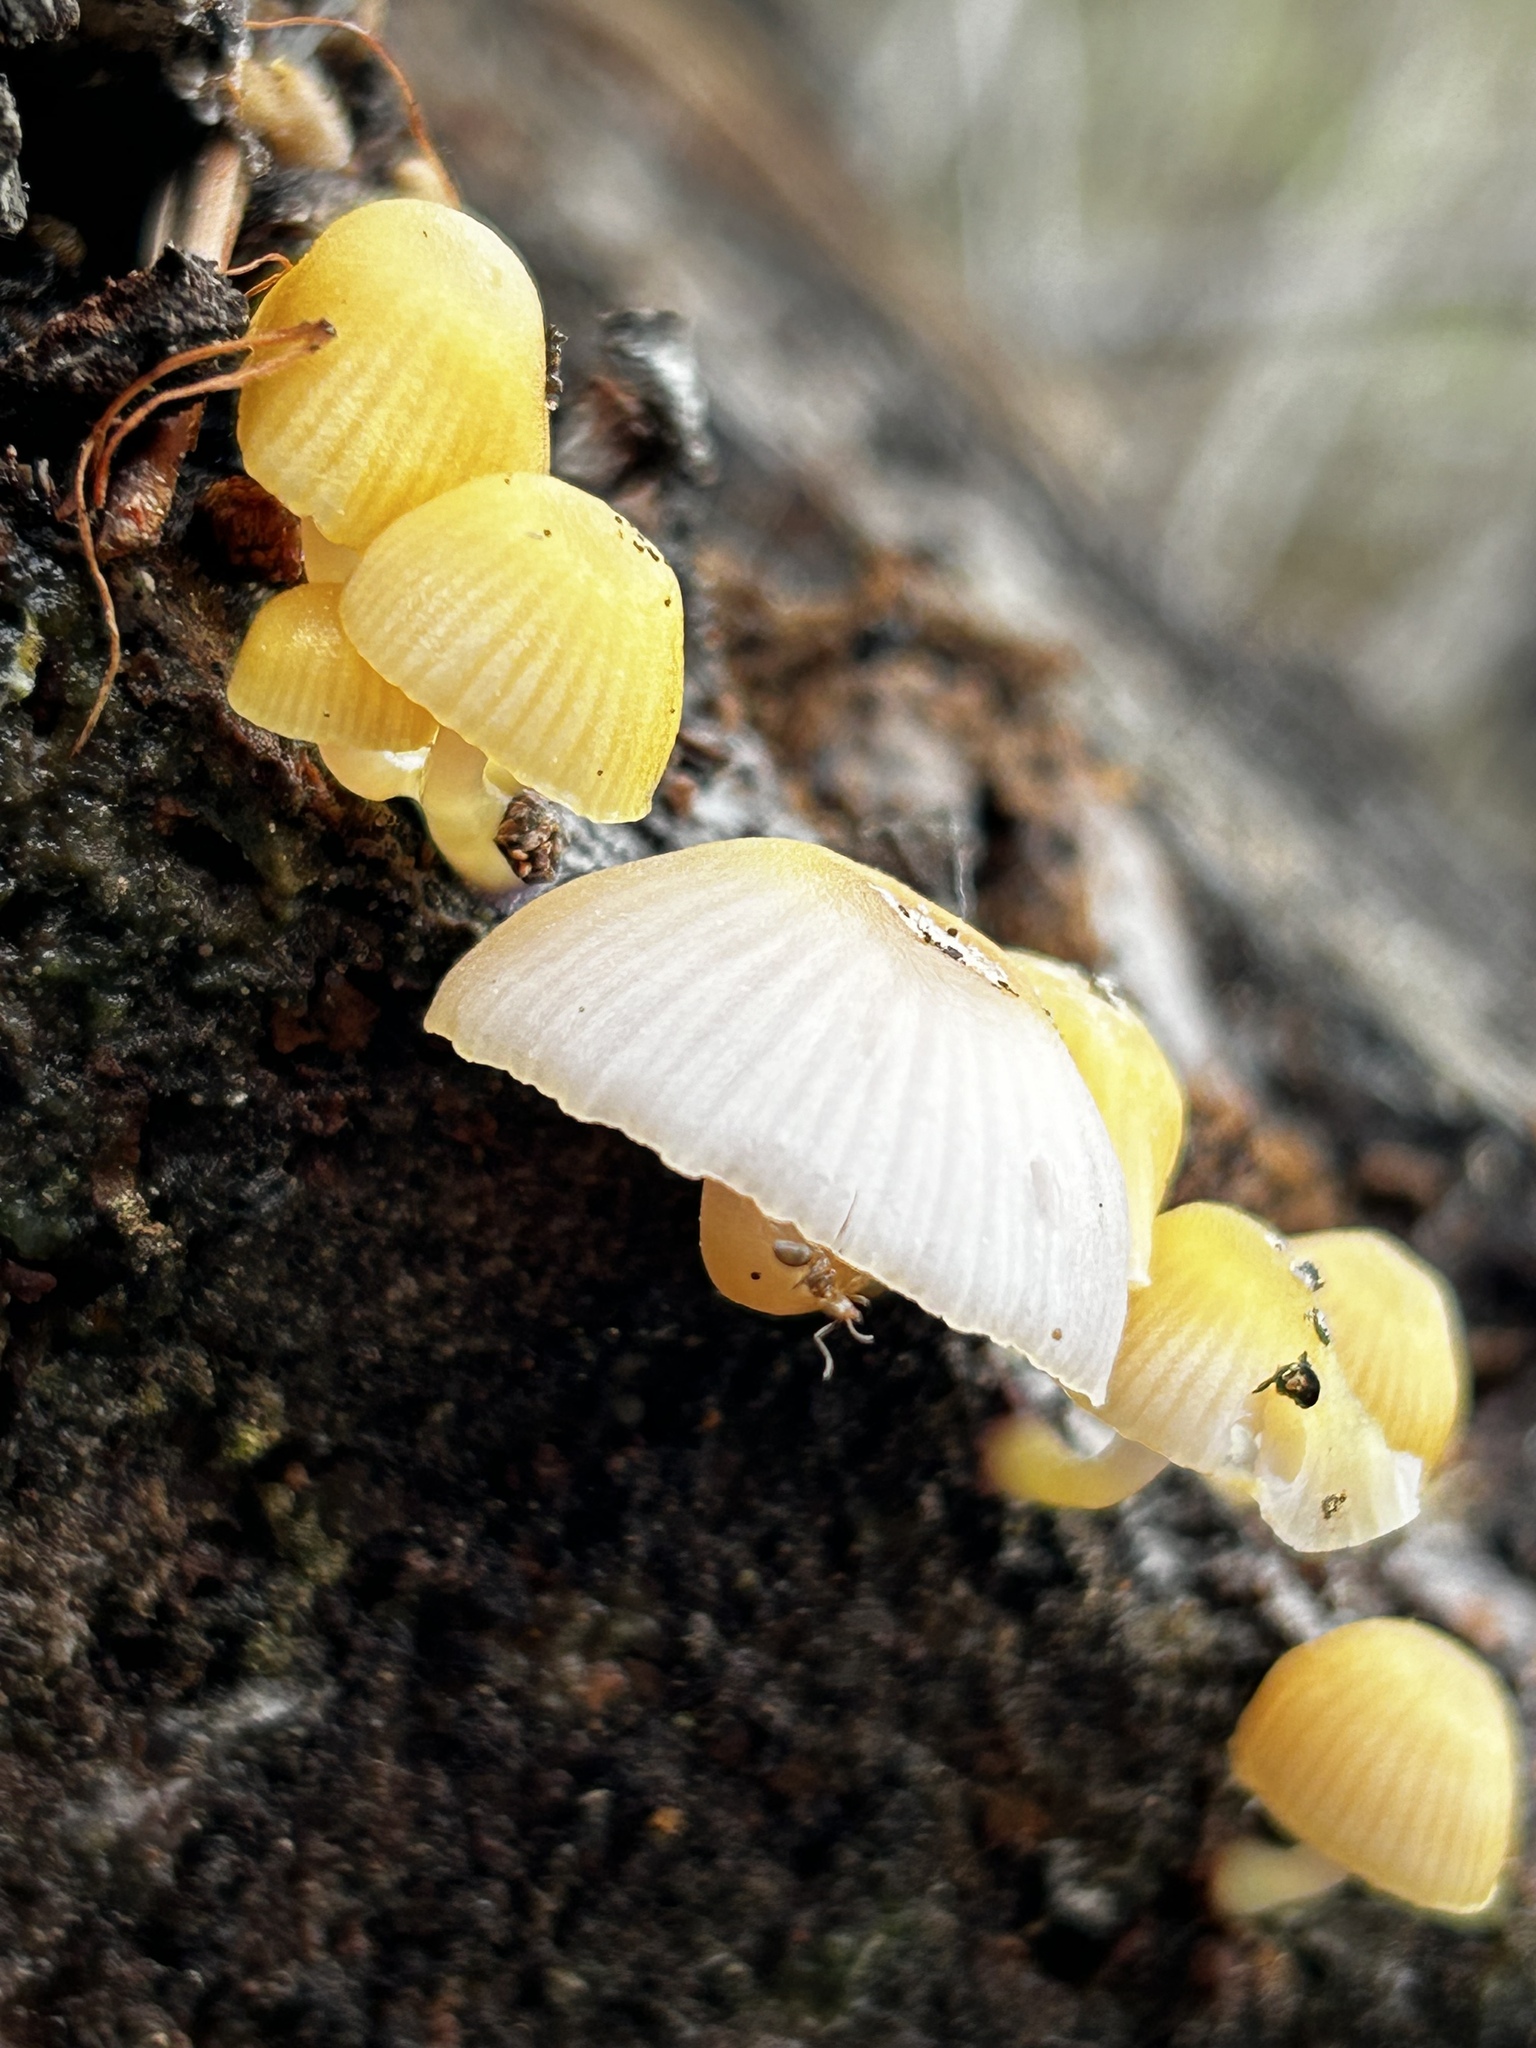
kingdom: Fungi
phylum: Basidiomycota
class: Agaricomycetes
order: Agaricales
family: Hygrophoraceae
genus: Chromosera
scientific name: Chromosera cyanophylla
